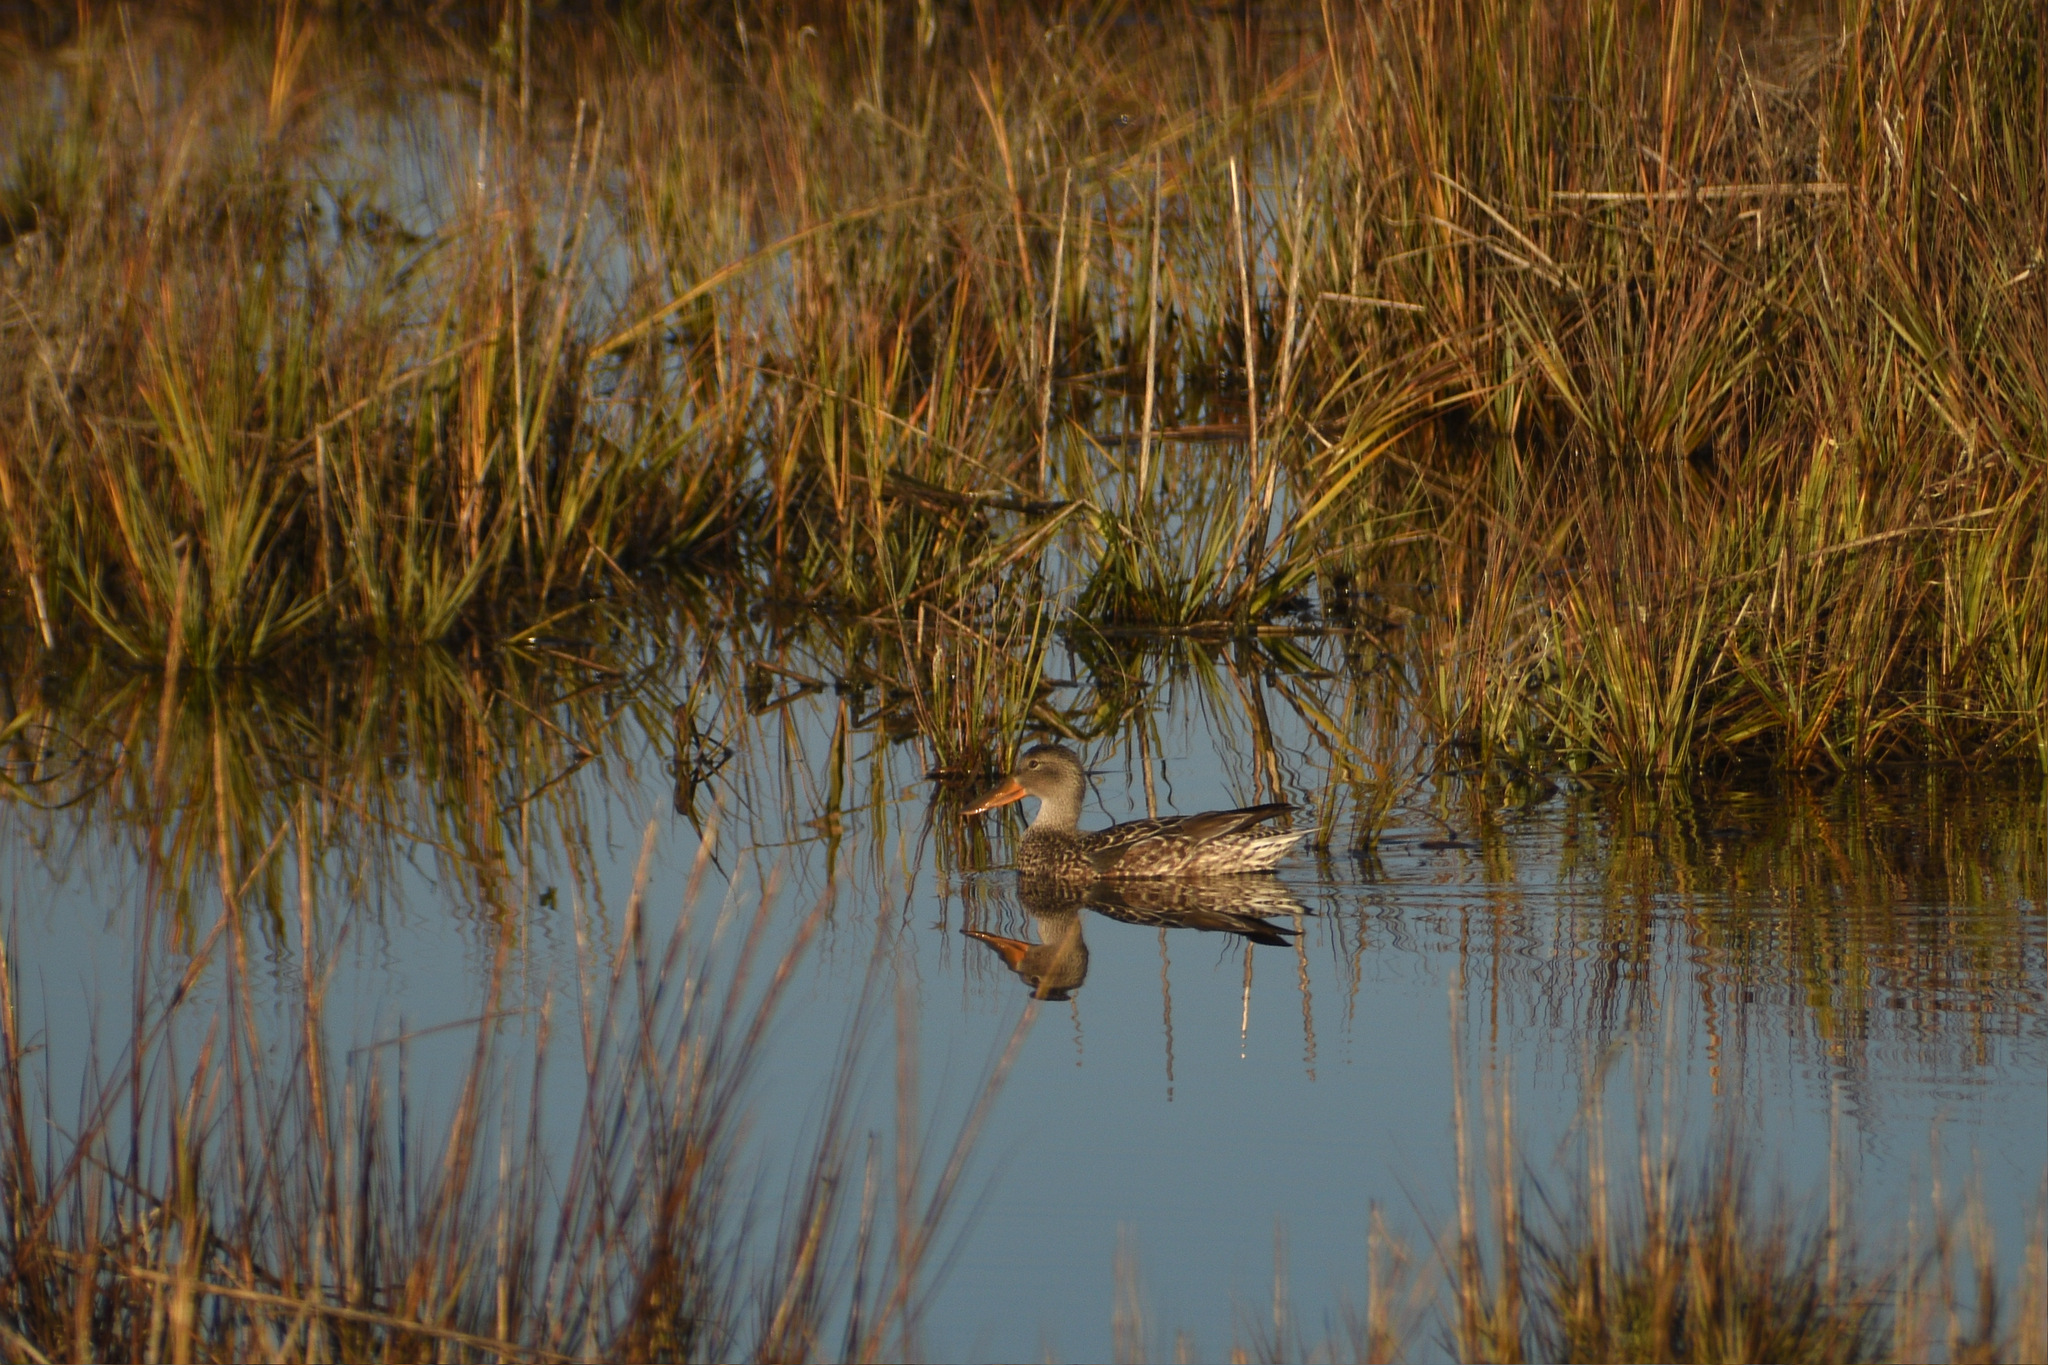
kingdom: Animalia
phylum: Chordata
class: Aves
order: Anseriformes
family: Anatidae
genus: Spatula
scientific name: Spatula clypeata
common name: Northern shoveler
